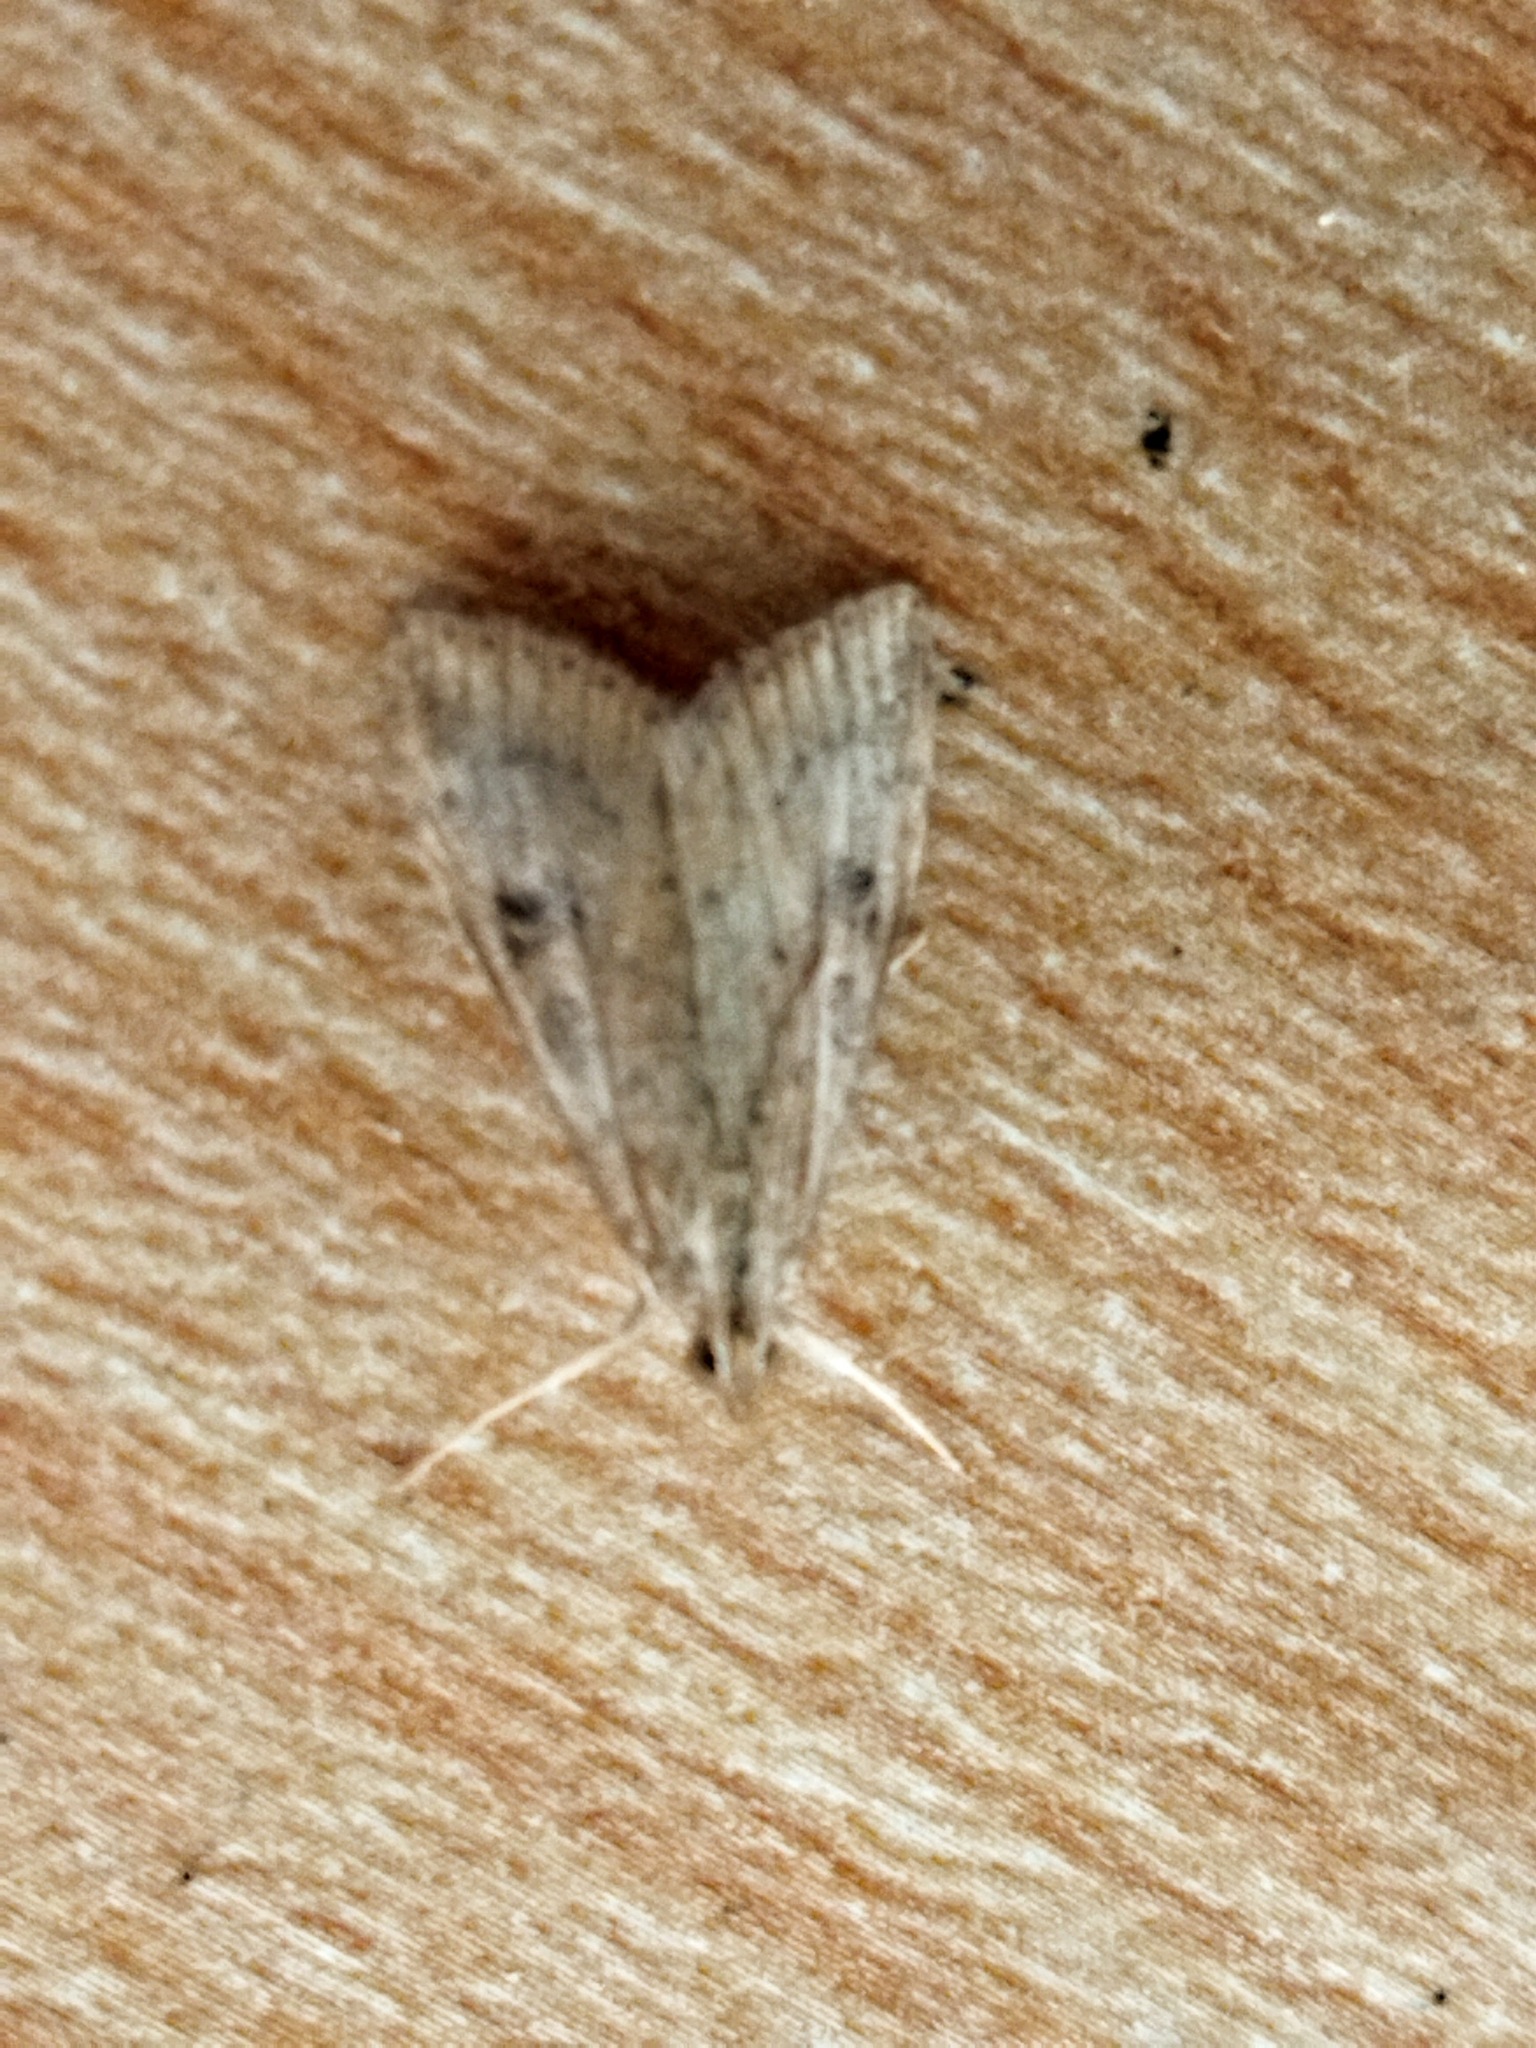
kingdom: Animalia
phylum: Arthropoda
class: Insecta
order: Lepidoptera
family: Crambidae
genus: Udea
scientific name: Udea ferrugalis
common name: Rusty dot
